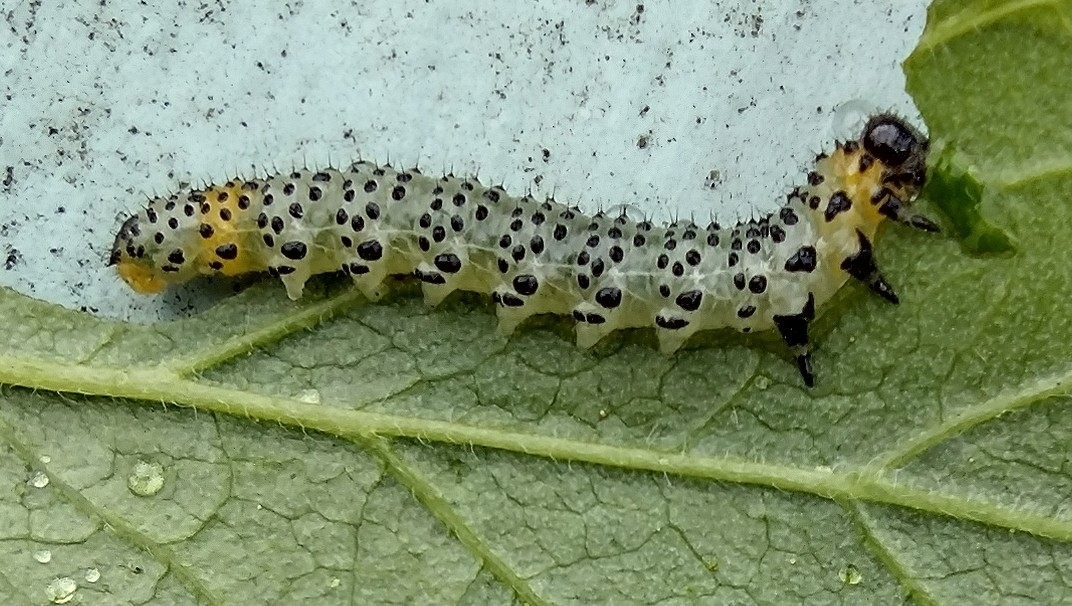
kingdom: Animalia
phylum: Arthropoda
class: Insecta
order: Hymenoptera
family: Tenthredinidae
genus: Nematus
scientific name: Nematus ribesii
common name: Imported currantworm
